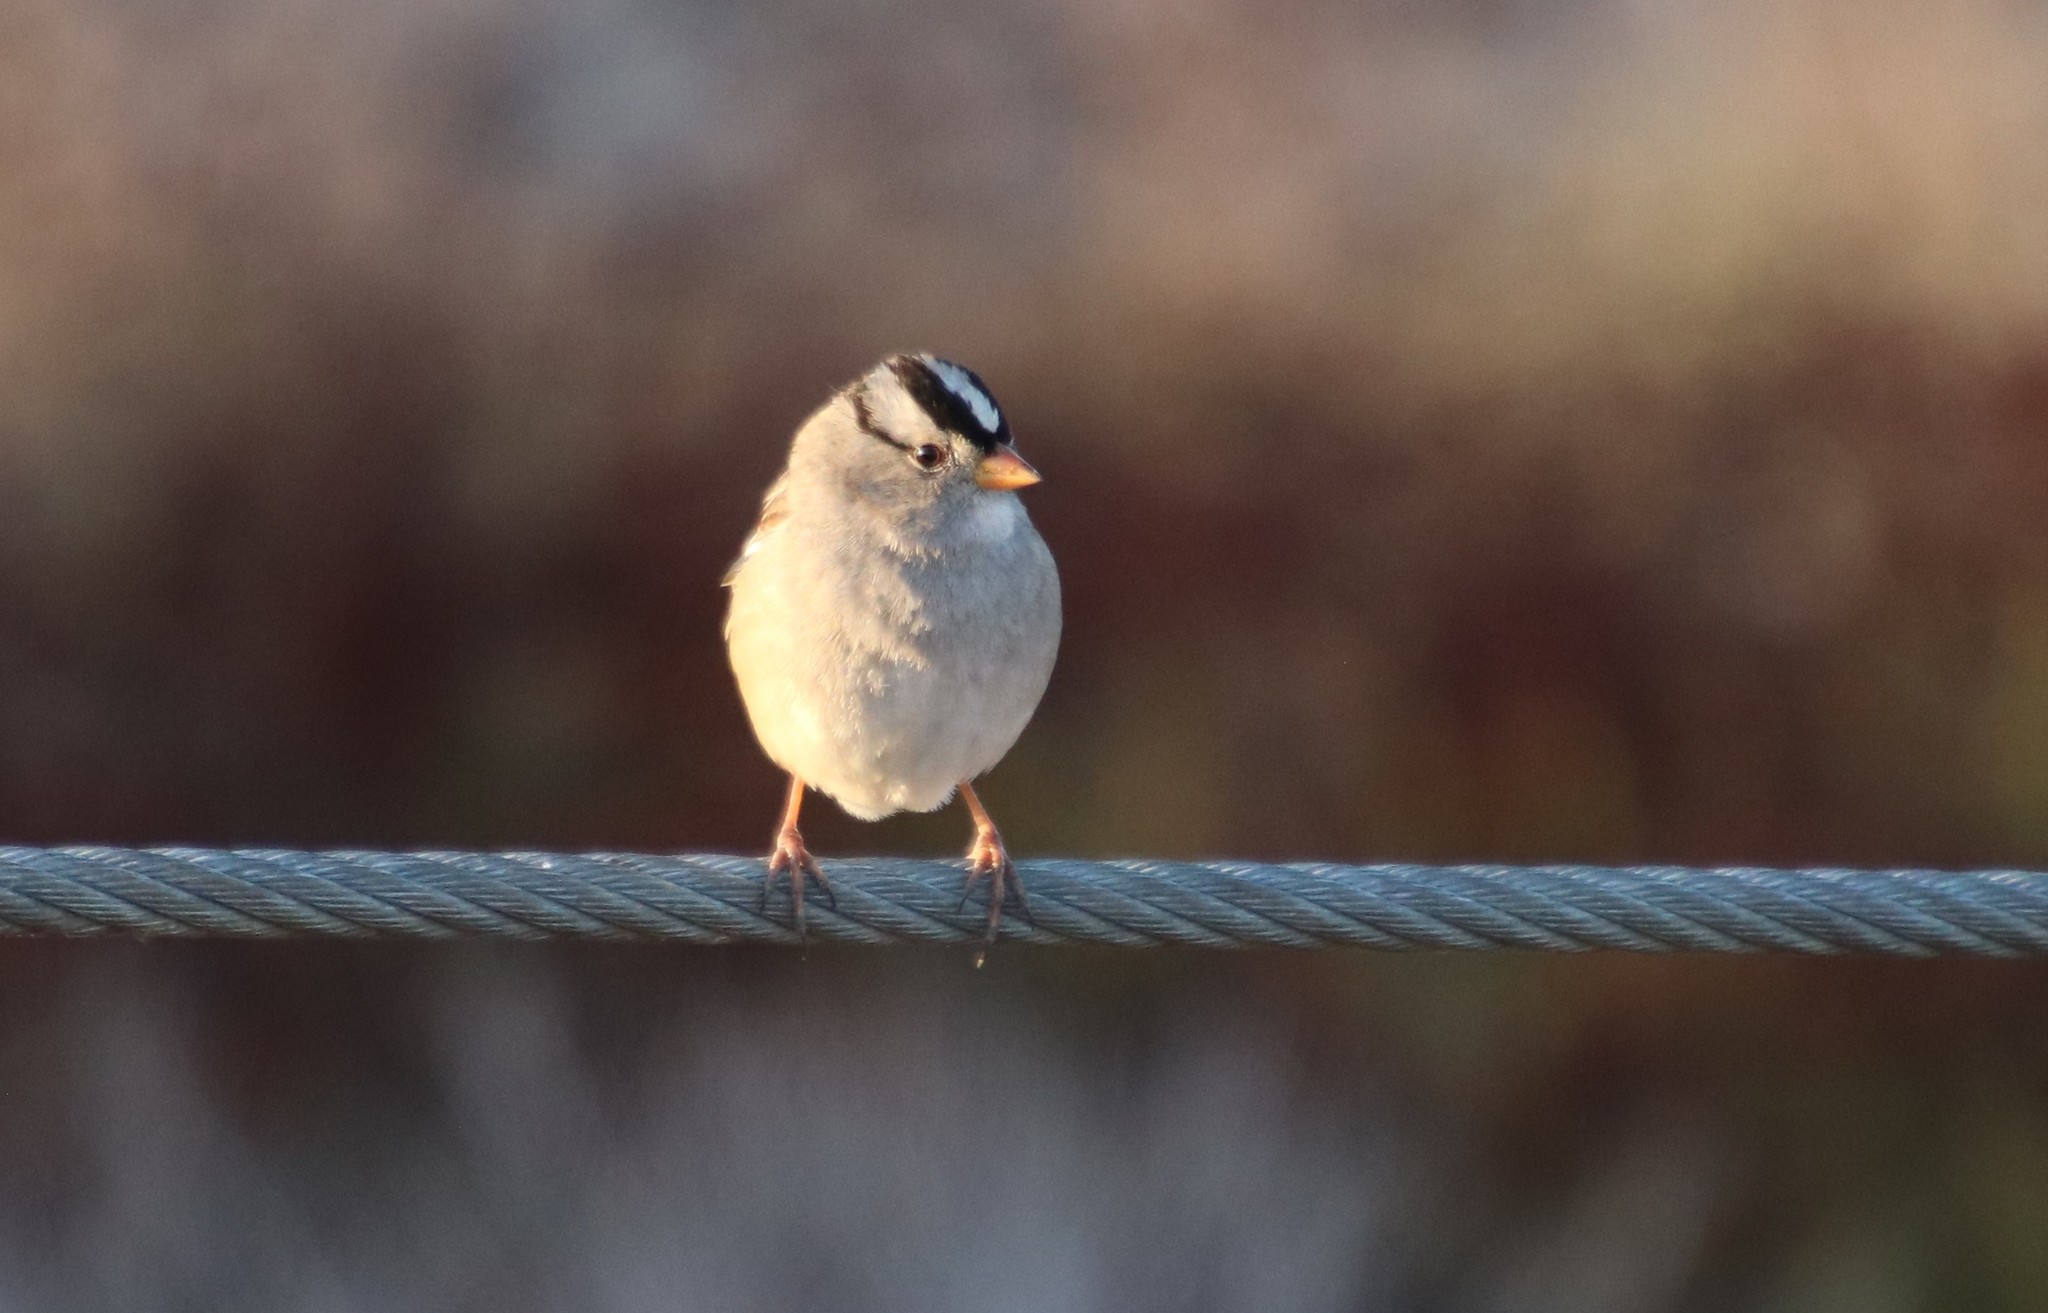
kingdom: Animalia
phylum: Chordata
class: Aves
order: Passeriformes
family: Passerellidae
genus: Zonotrichia
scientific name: Zonotrichia leucophrys
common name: White-crowned sparrow
